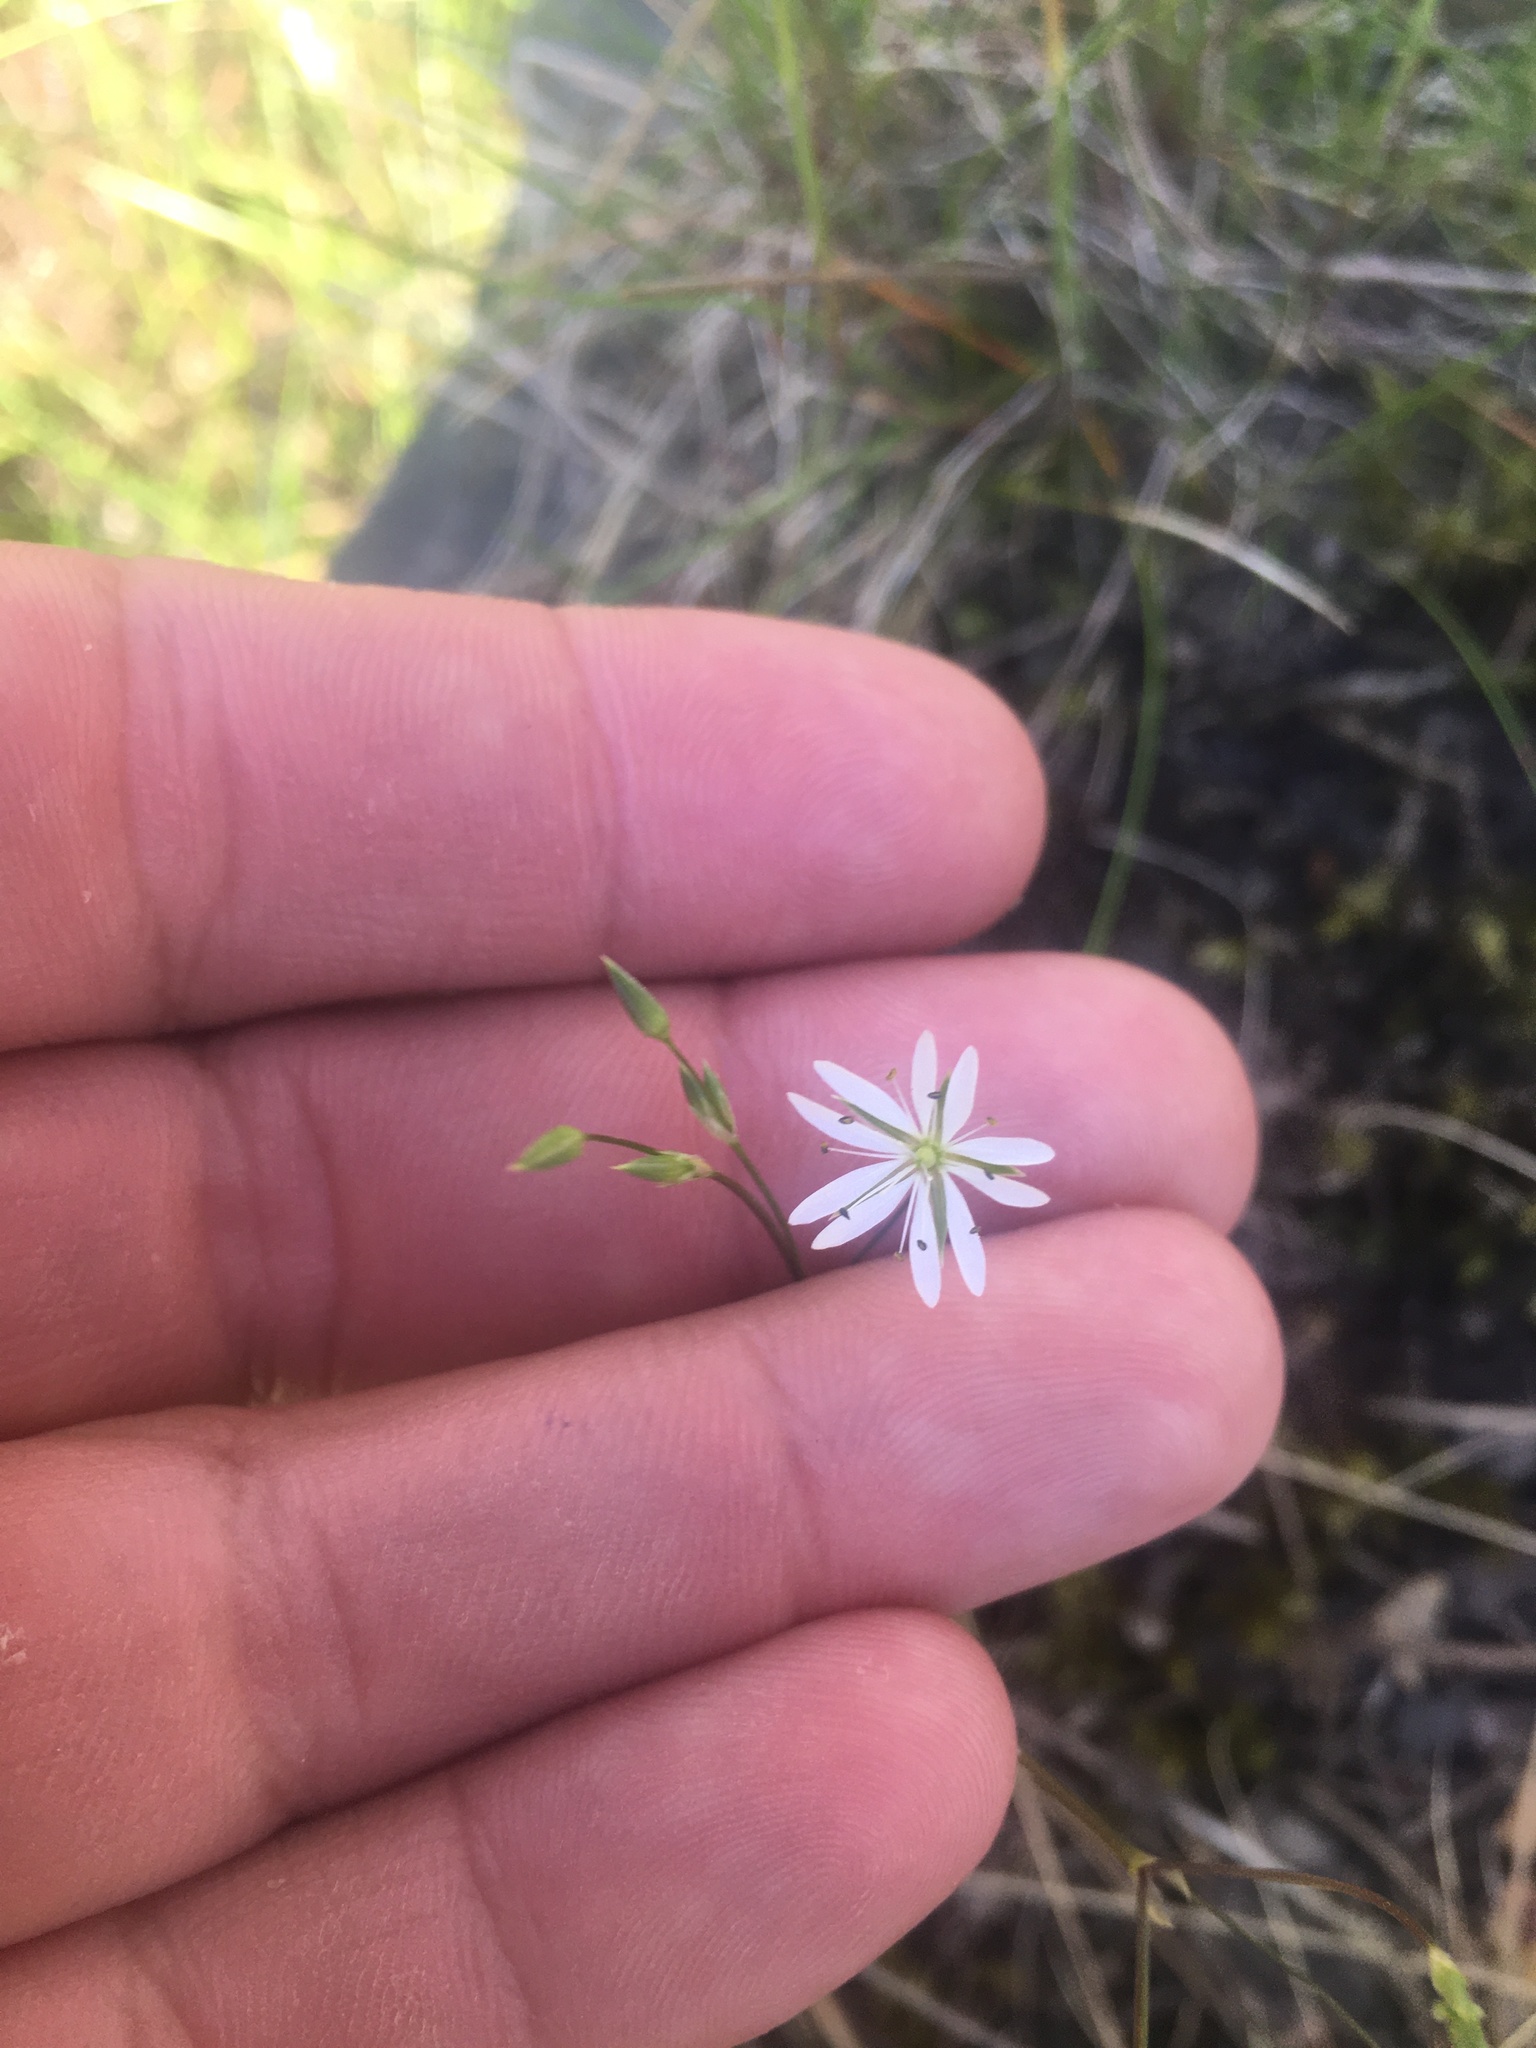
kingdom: Plantae
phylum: Tracheophyta
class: Magnoliopsida
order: Caryophyllales
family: Caryophyllaceae
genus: Stellaria
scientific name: Stellaria graminea
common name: Grass-like starwort
